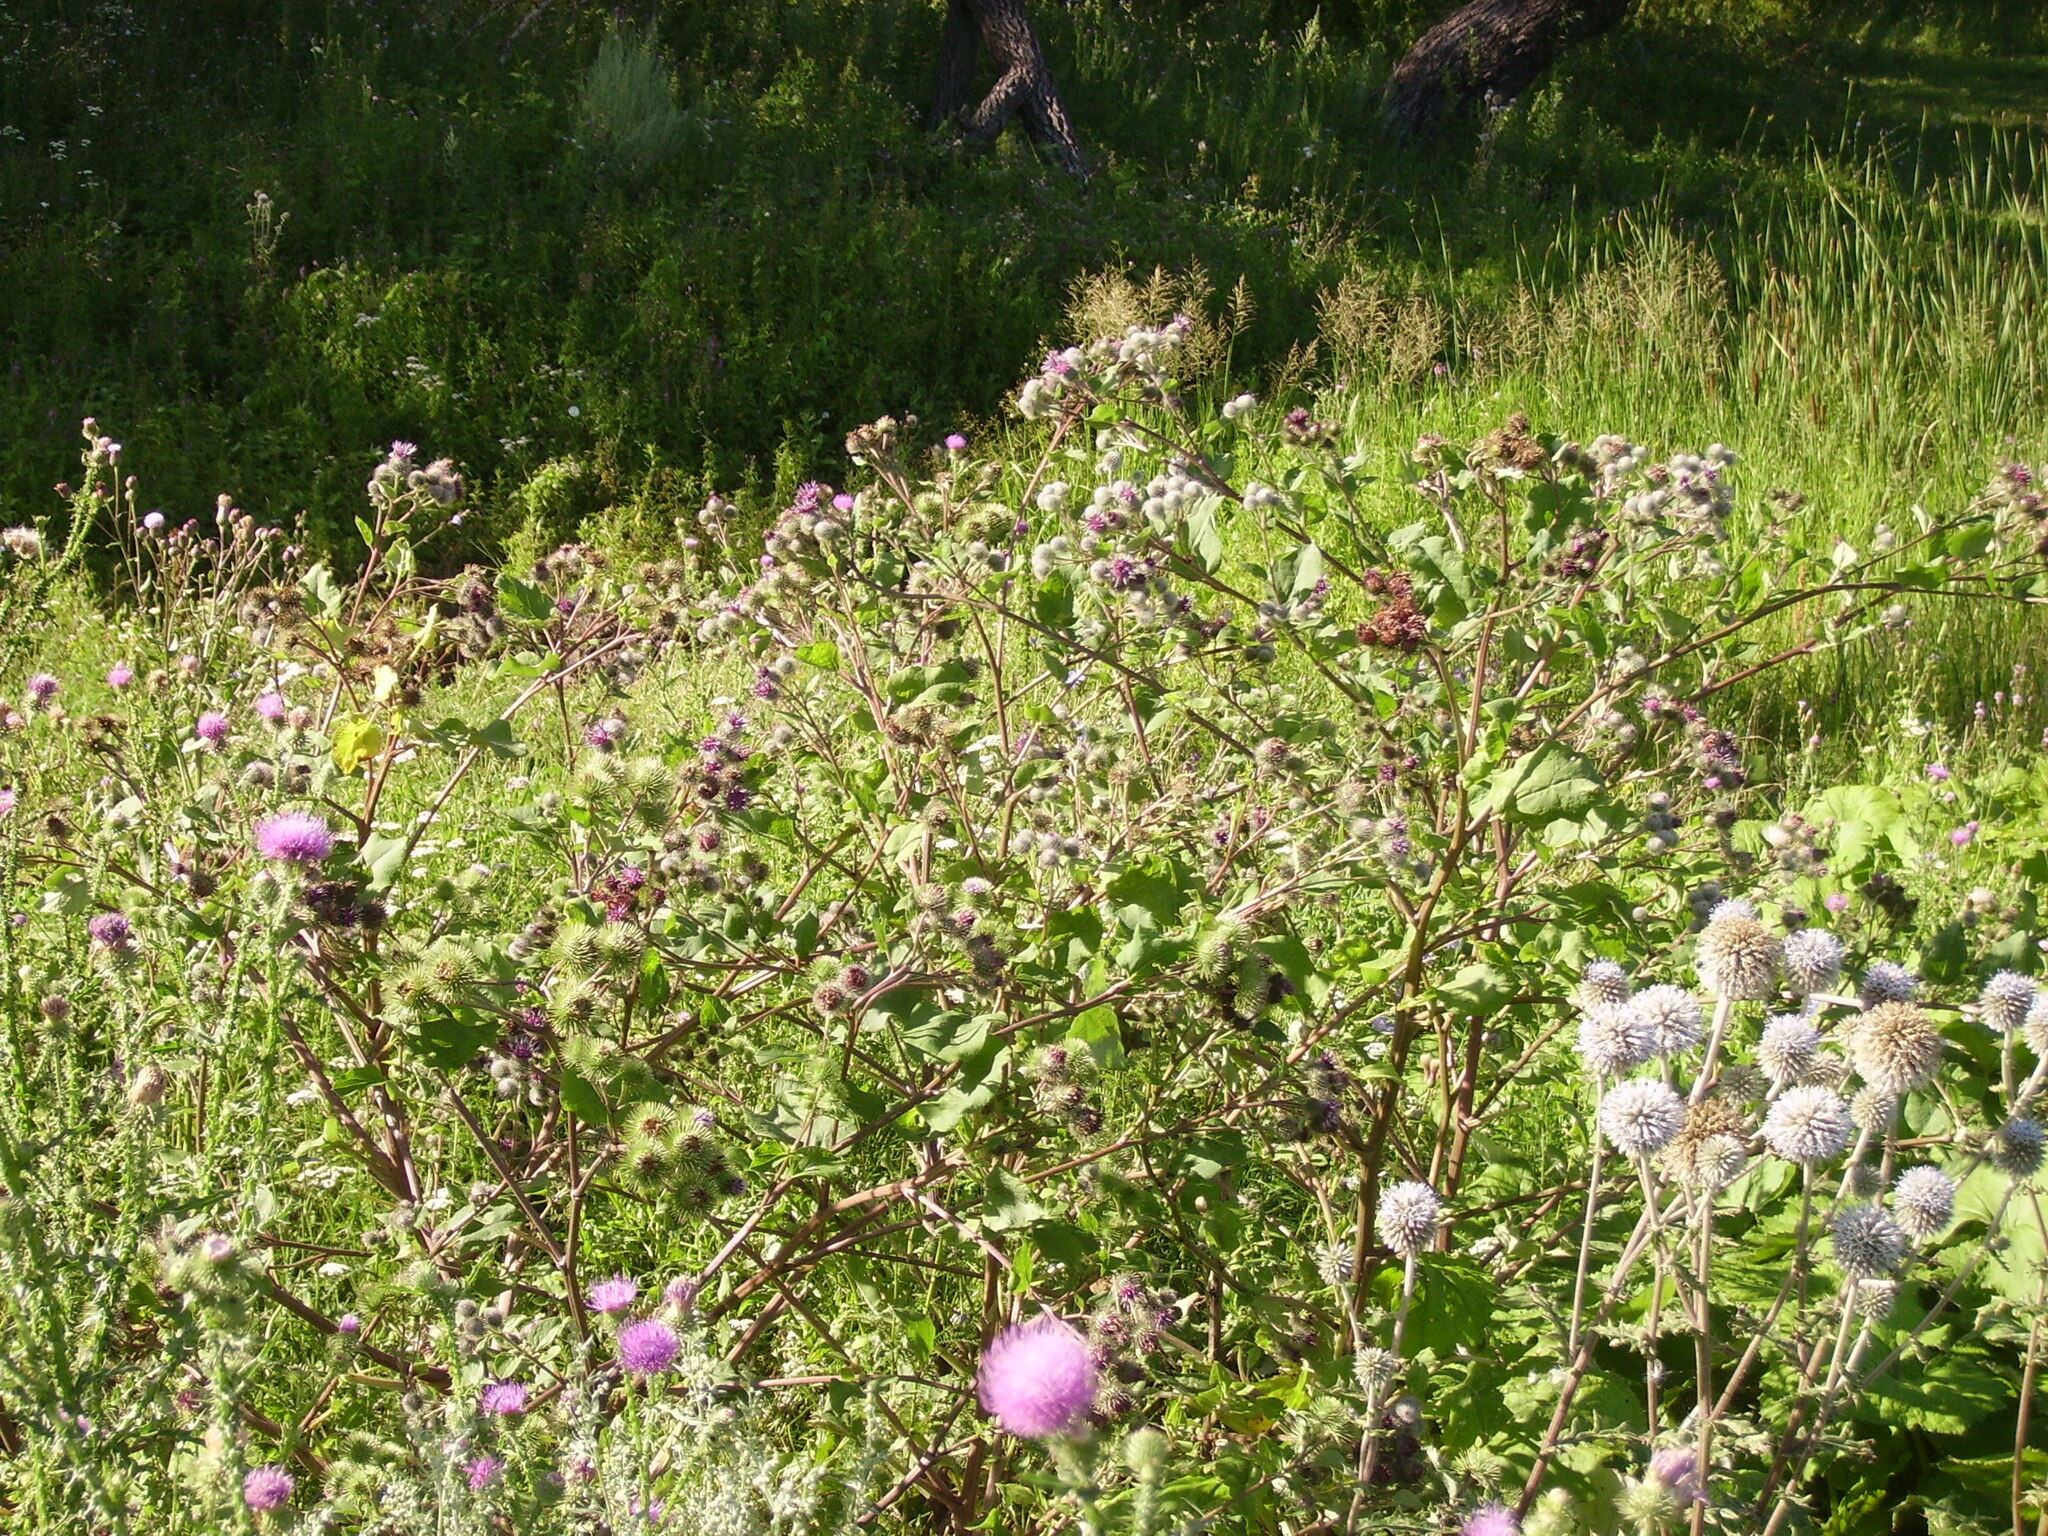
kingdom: Plantae
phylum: Tracheophyta
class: Magnoliopsida
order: Asterales
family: Asteraceae
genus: Arctium
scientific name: Arctium tomentosum
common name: Woolly burdock
